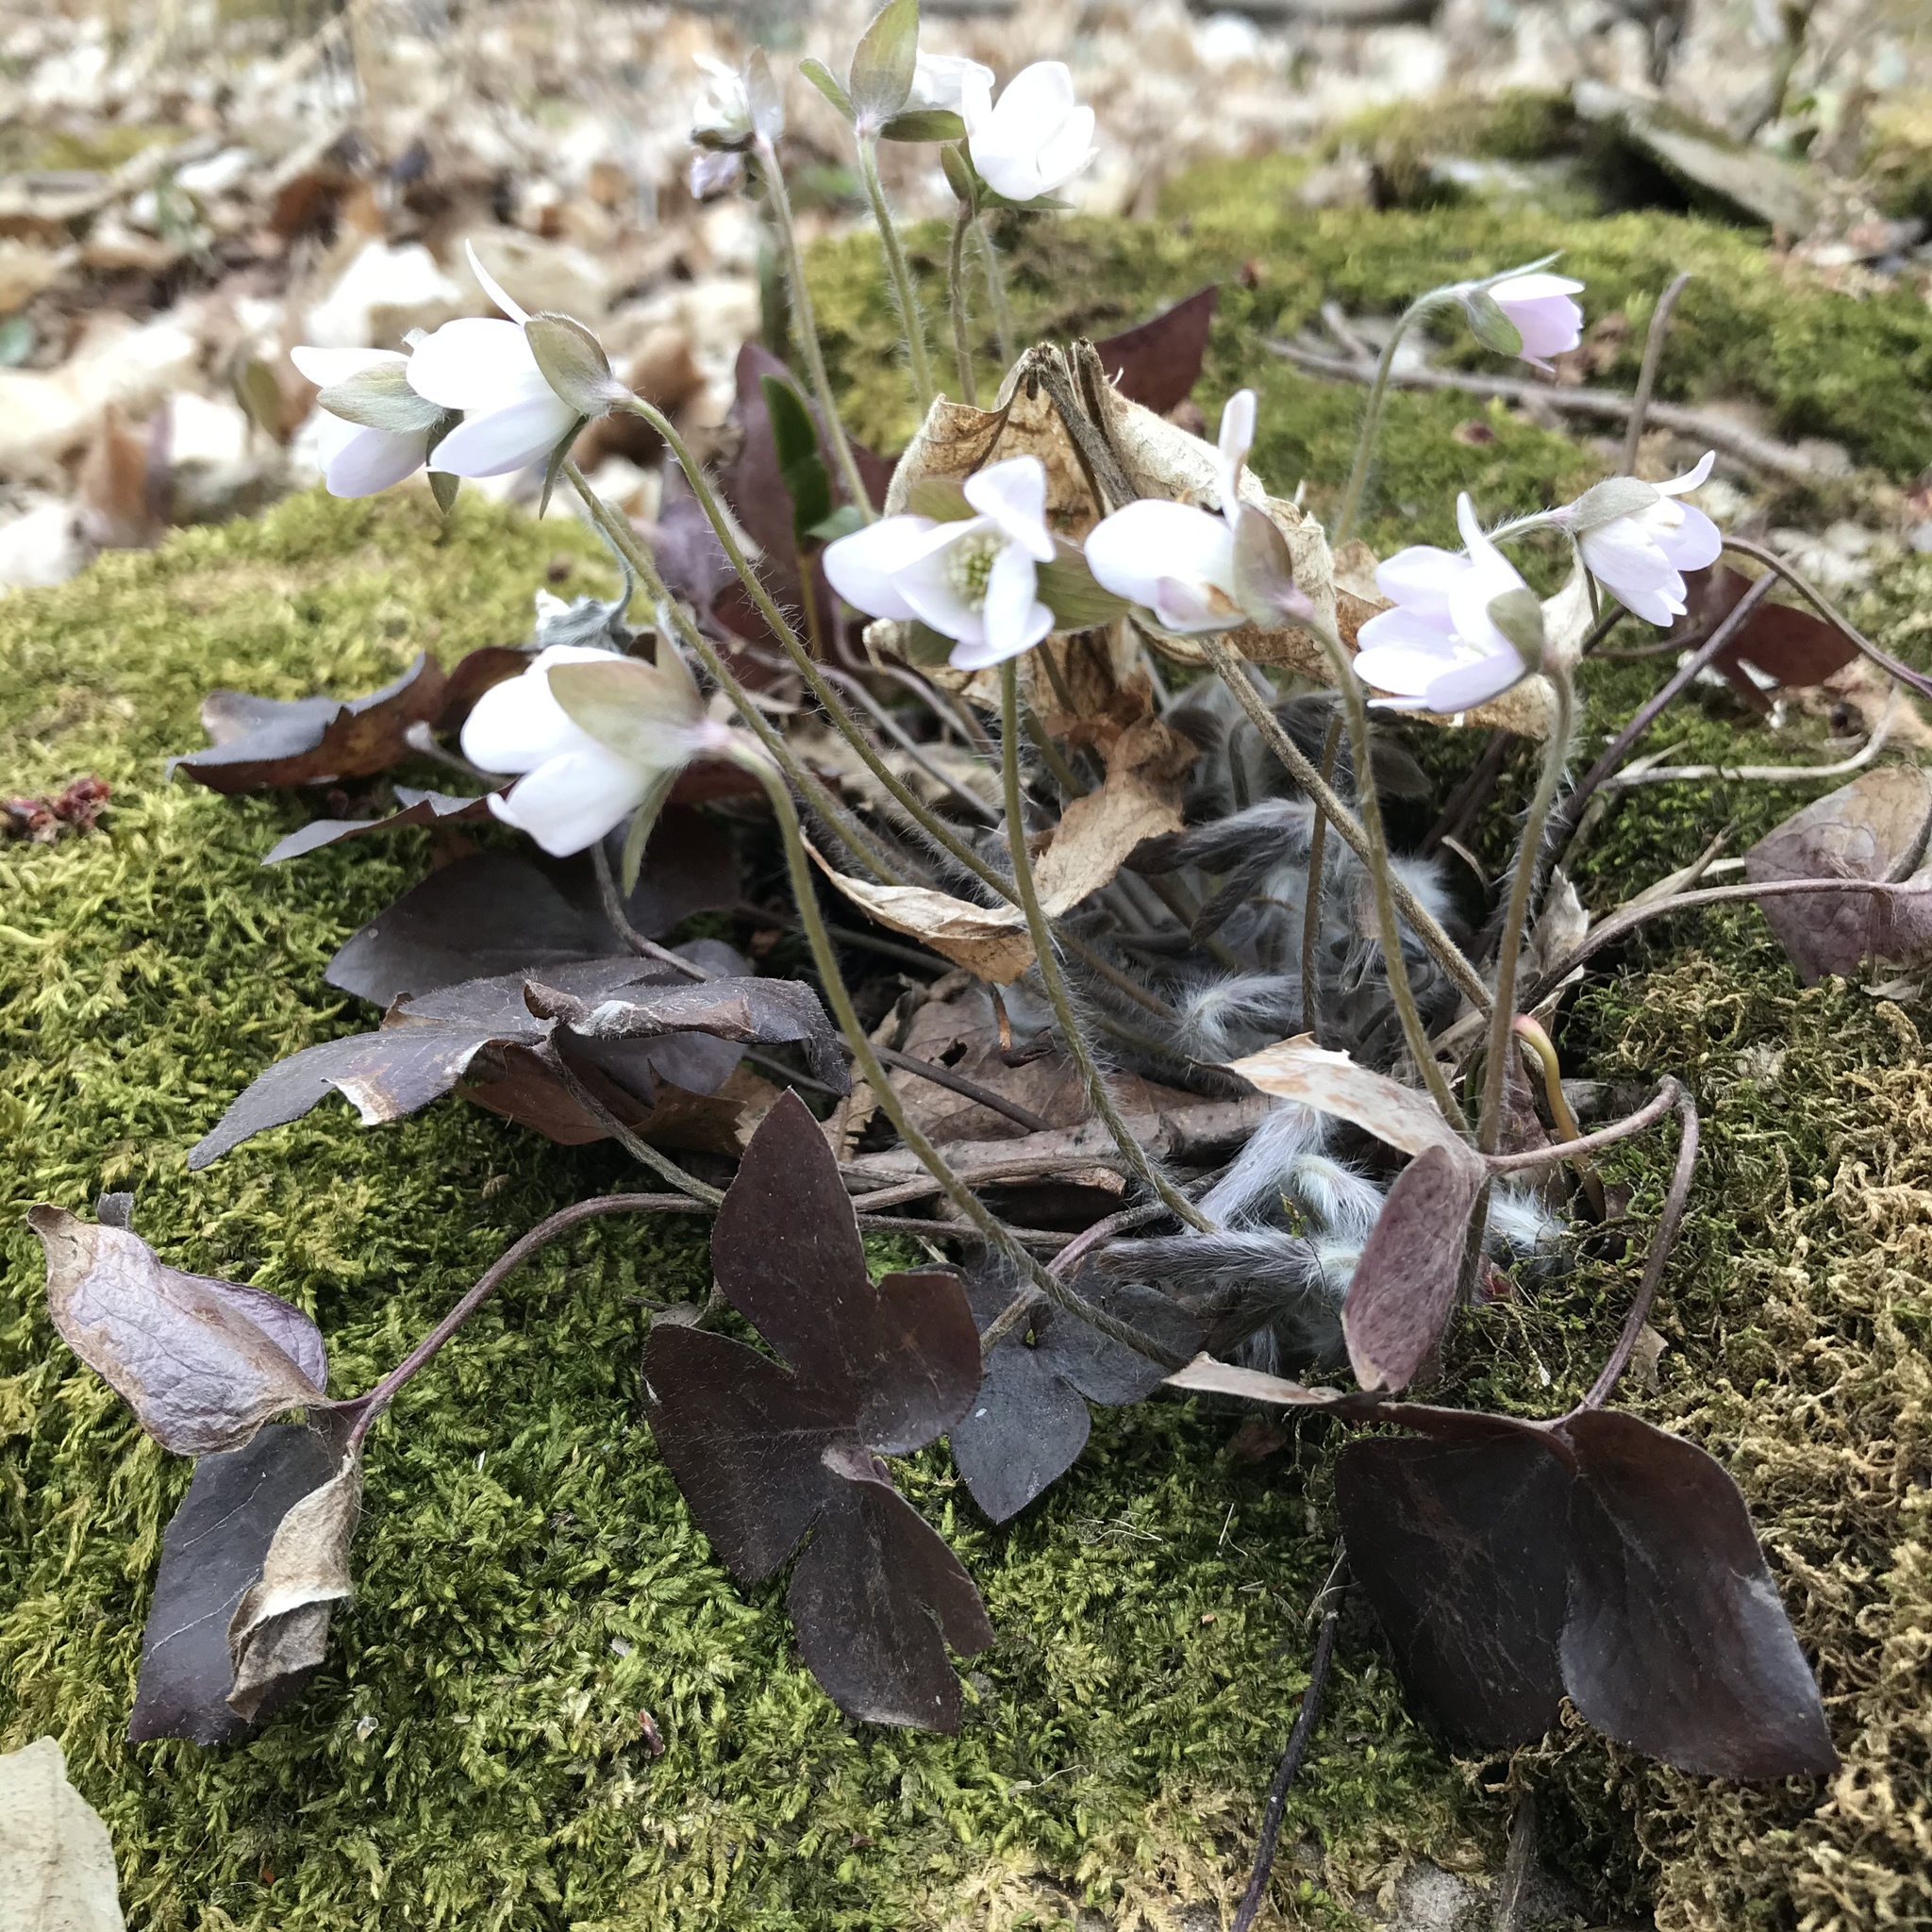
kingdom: Plantae
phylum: Tracheophyta
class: Magnoliopsida
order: Ranunculales
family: Ranunculaceae
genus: Hepatica
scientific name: Hepatica acutiloba
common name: Sharp-lobed hepatica
